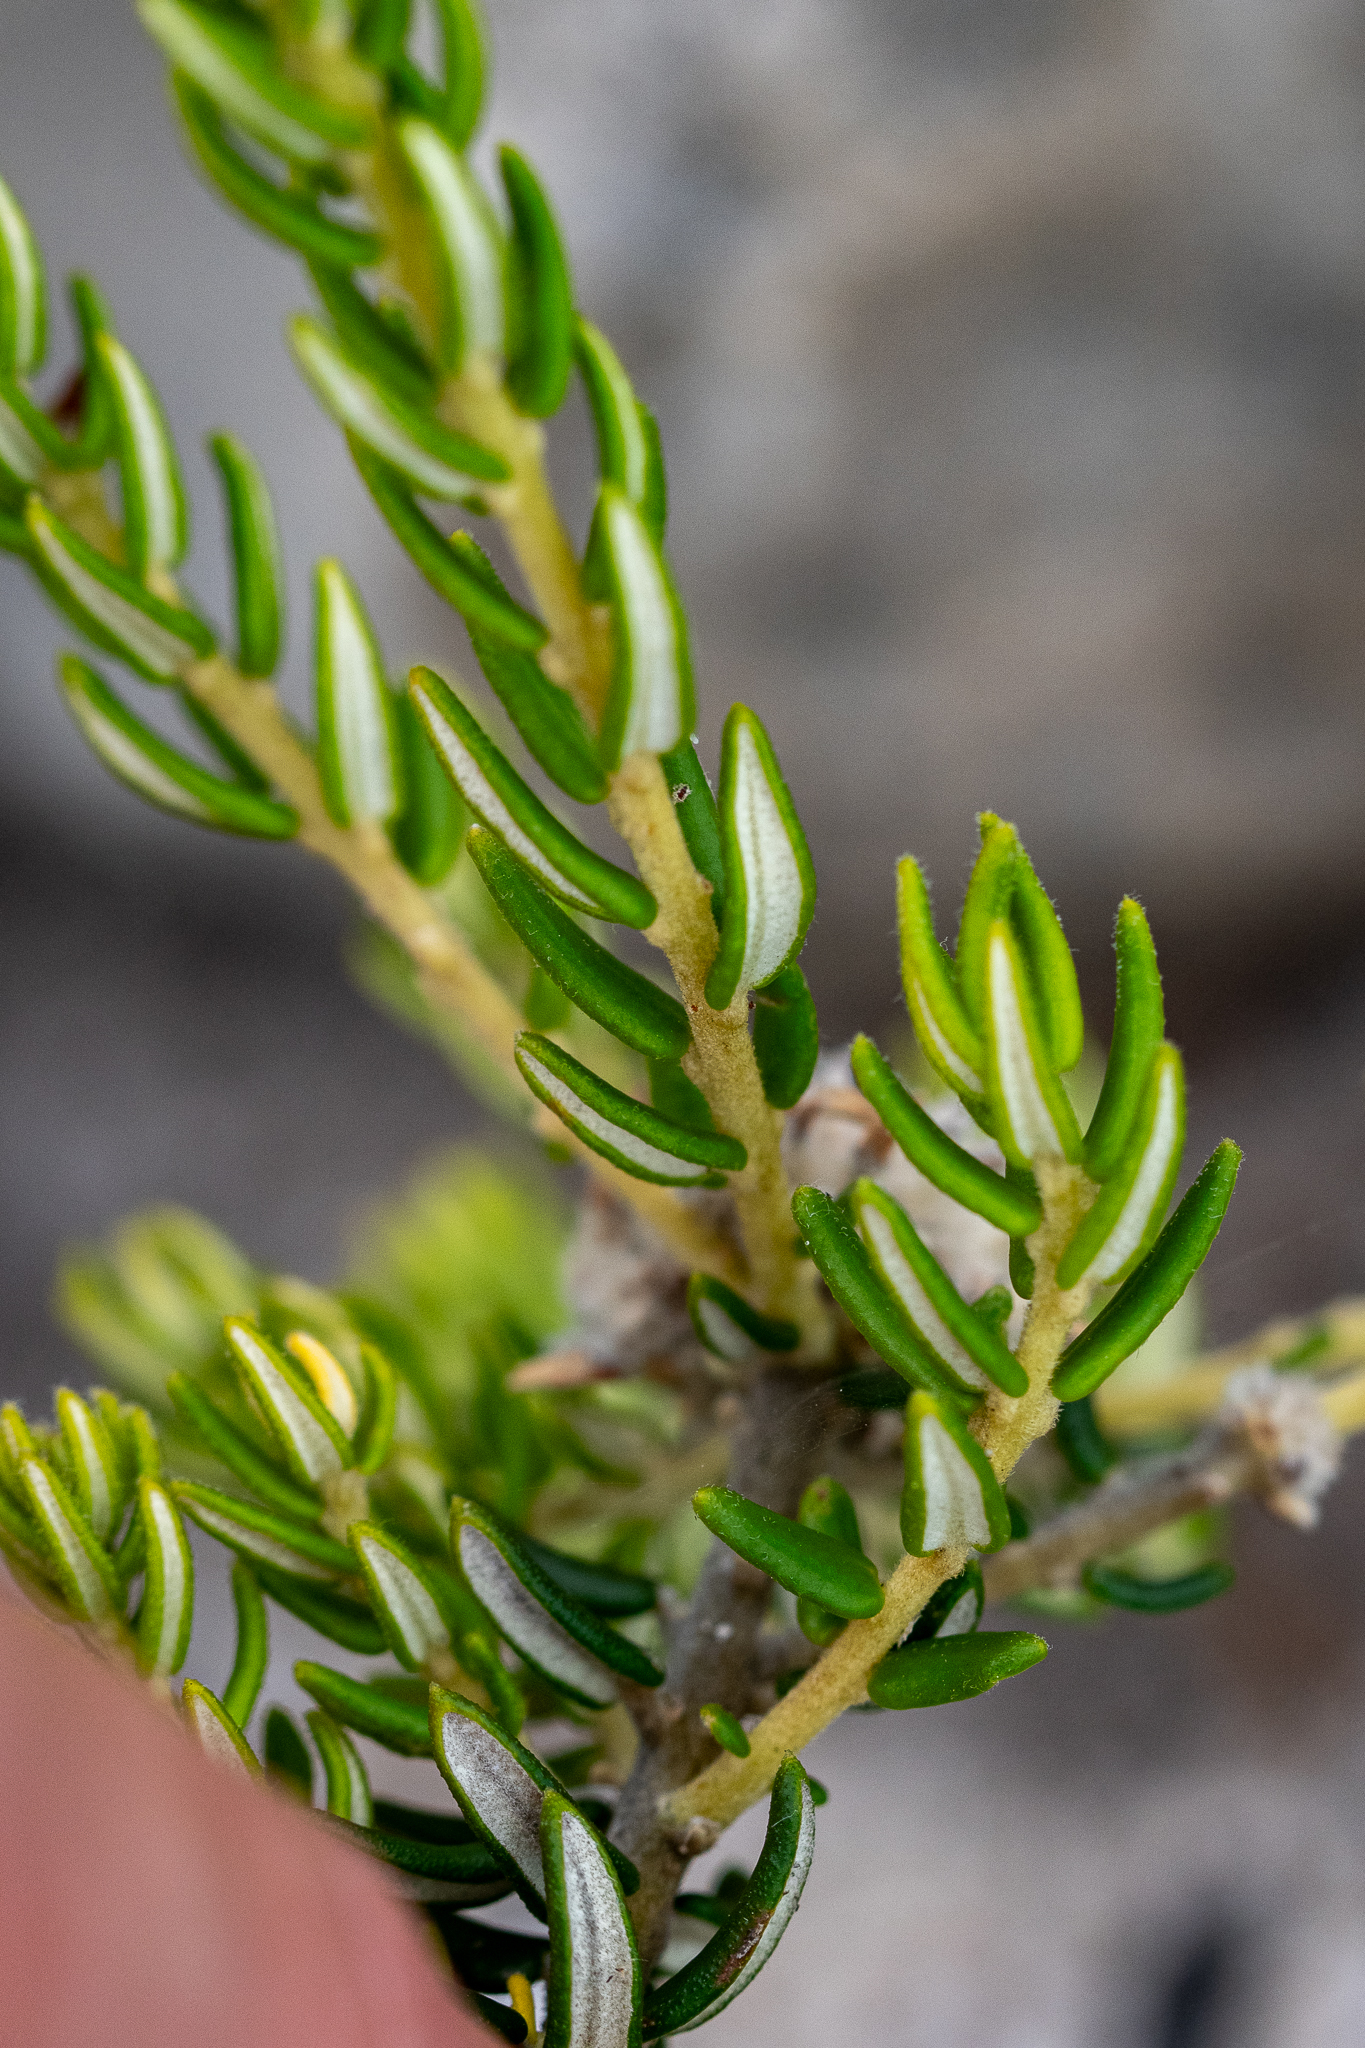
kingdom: Plantae
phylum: Tracheophyta
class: Magnoliopsida
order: Rosales
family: Rhamnaceae
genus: Phylica
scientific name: Phylica lasiocarpa
